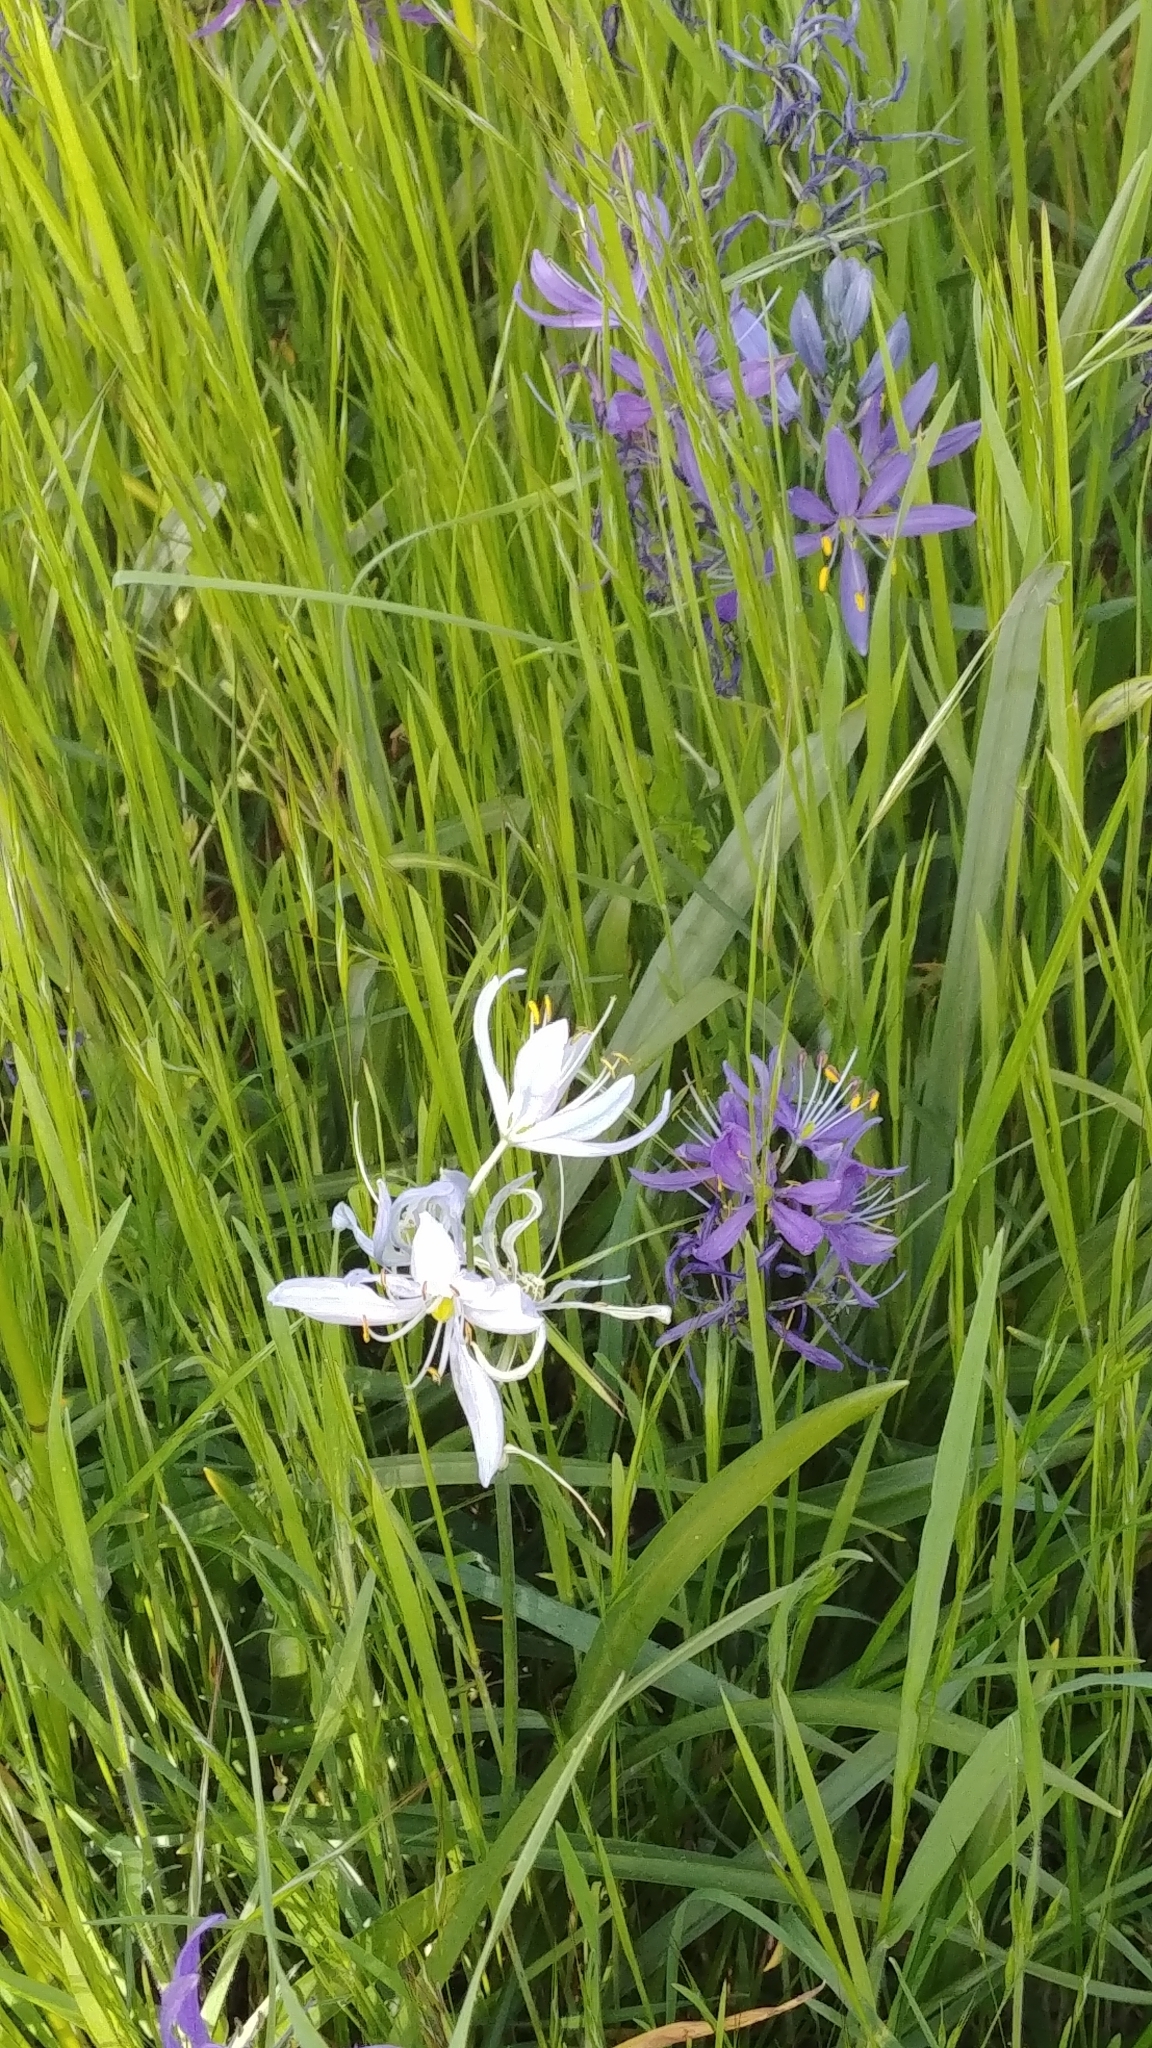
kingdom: Plantae
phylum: Tracheophyta
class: Liliopsida
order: Asparagales
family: Asparagaceae
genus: Camassia
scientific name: Camassia quamash
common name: Common camas
